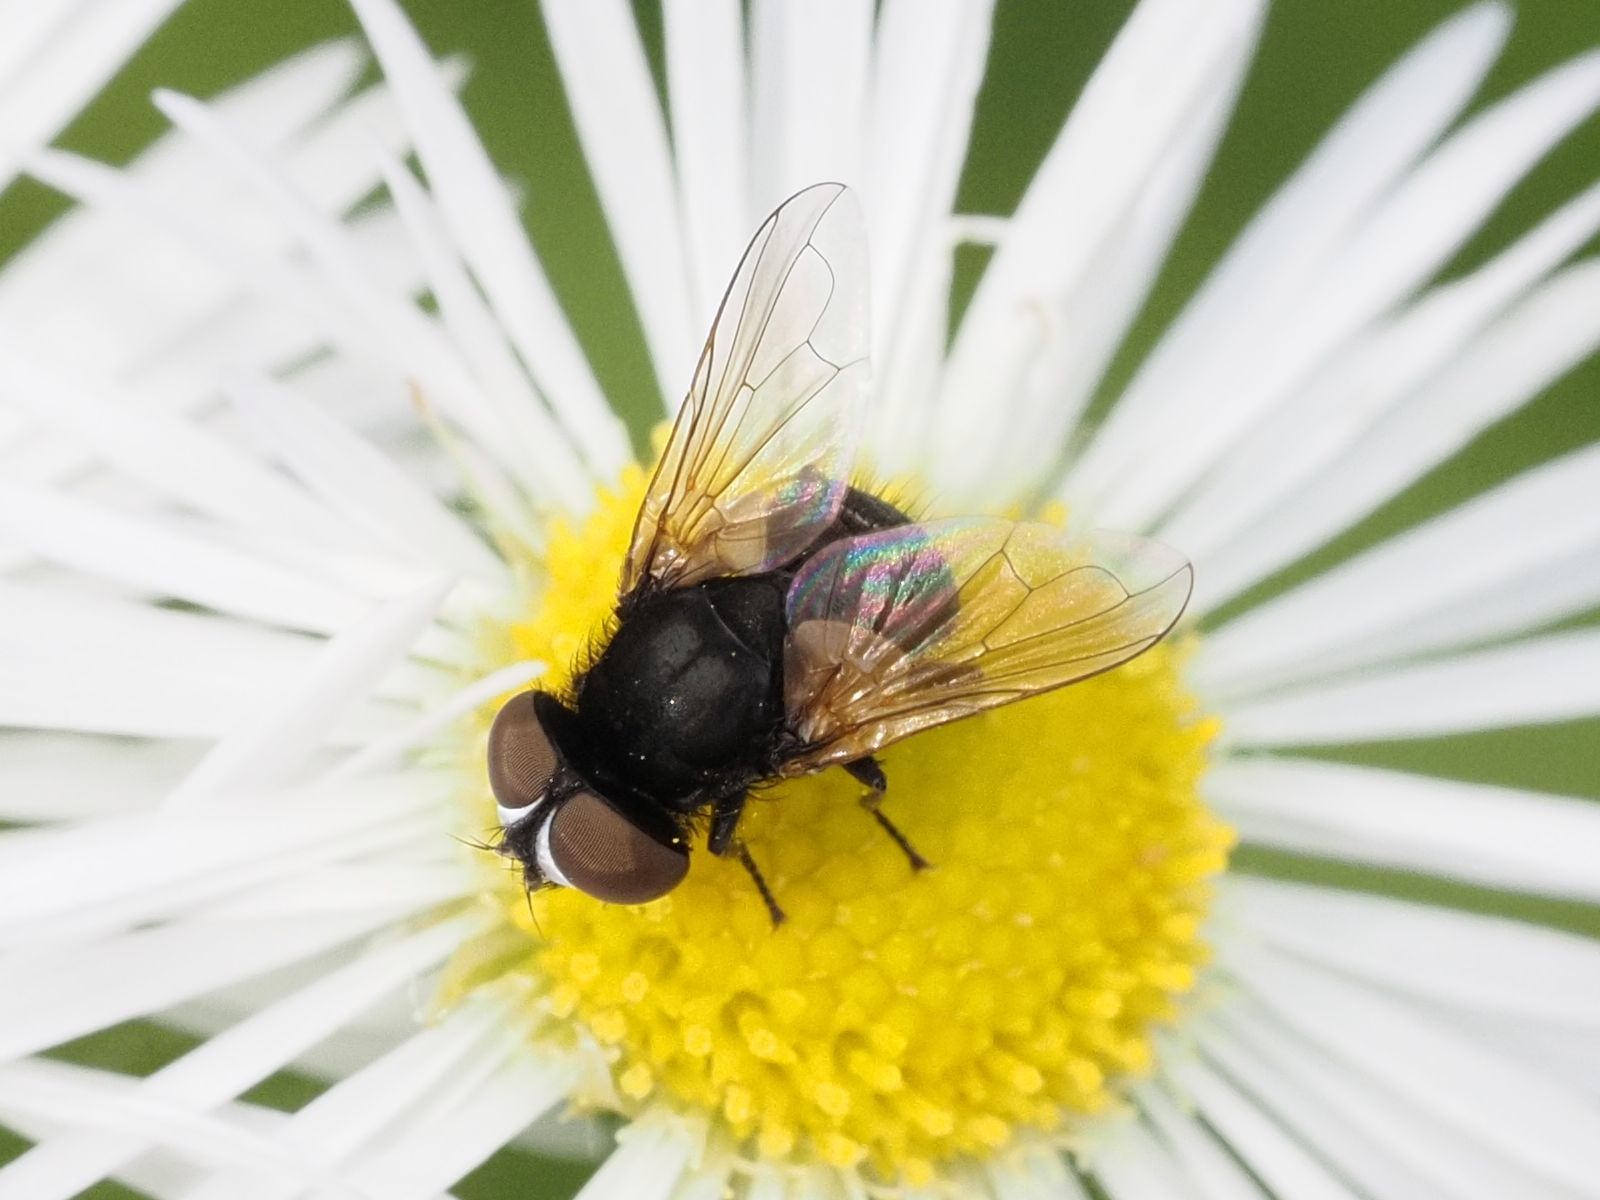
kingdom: Animalia
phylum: Arthropoda
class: Insecta
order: Diptera
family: Tachinidae
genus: Phasia
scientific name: Phasia obesa
